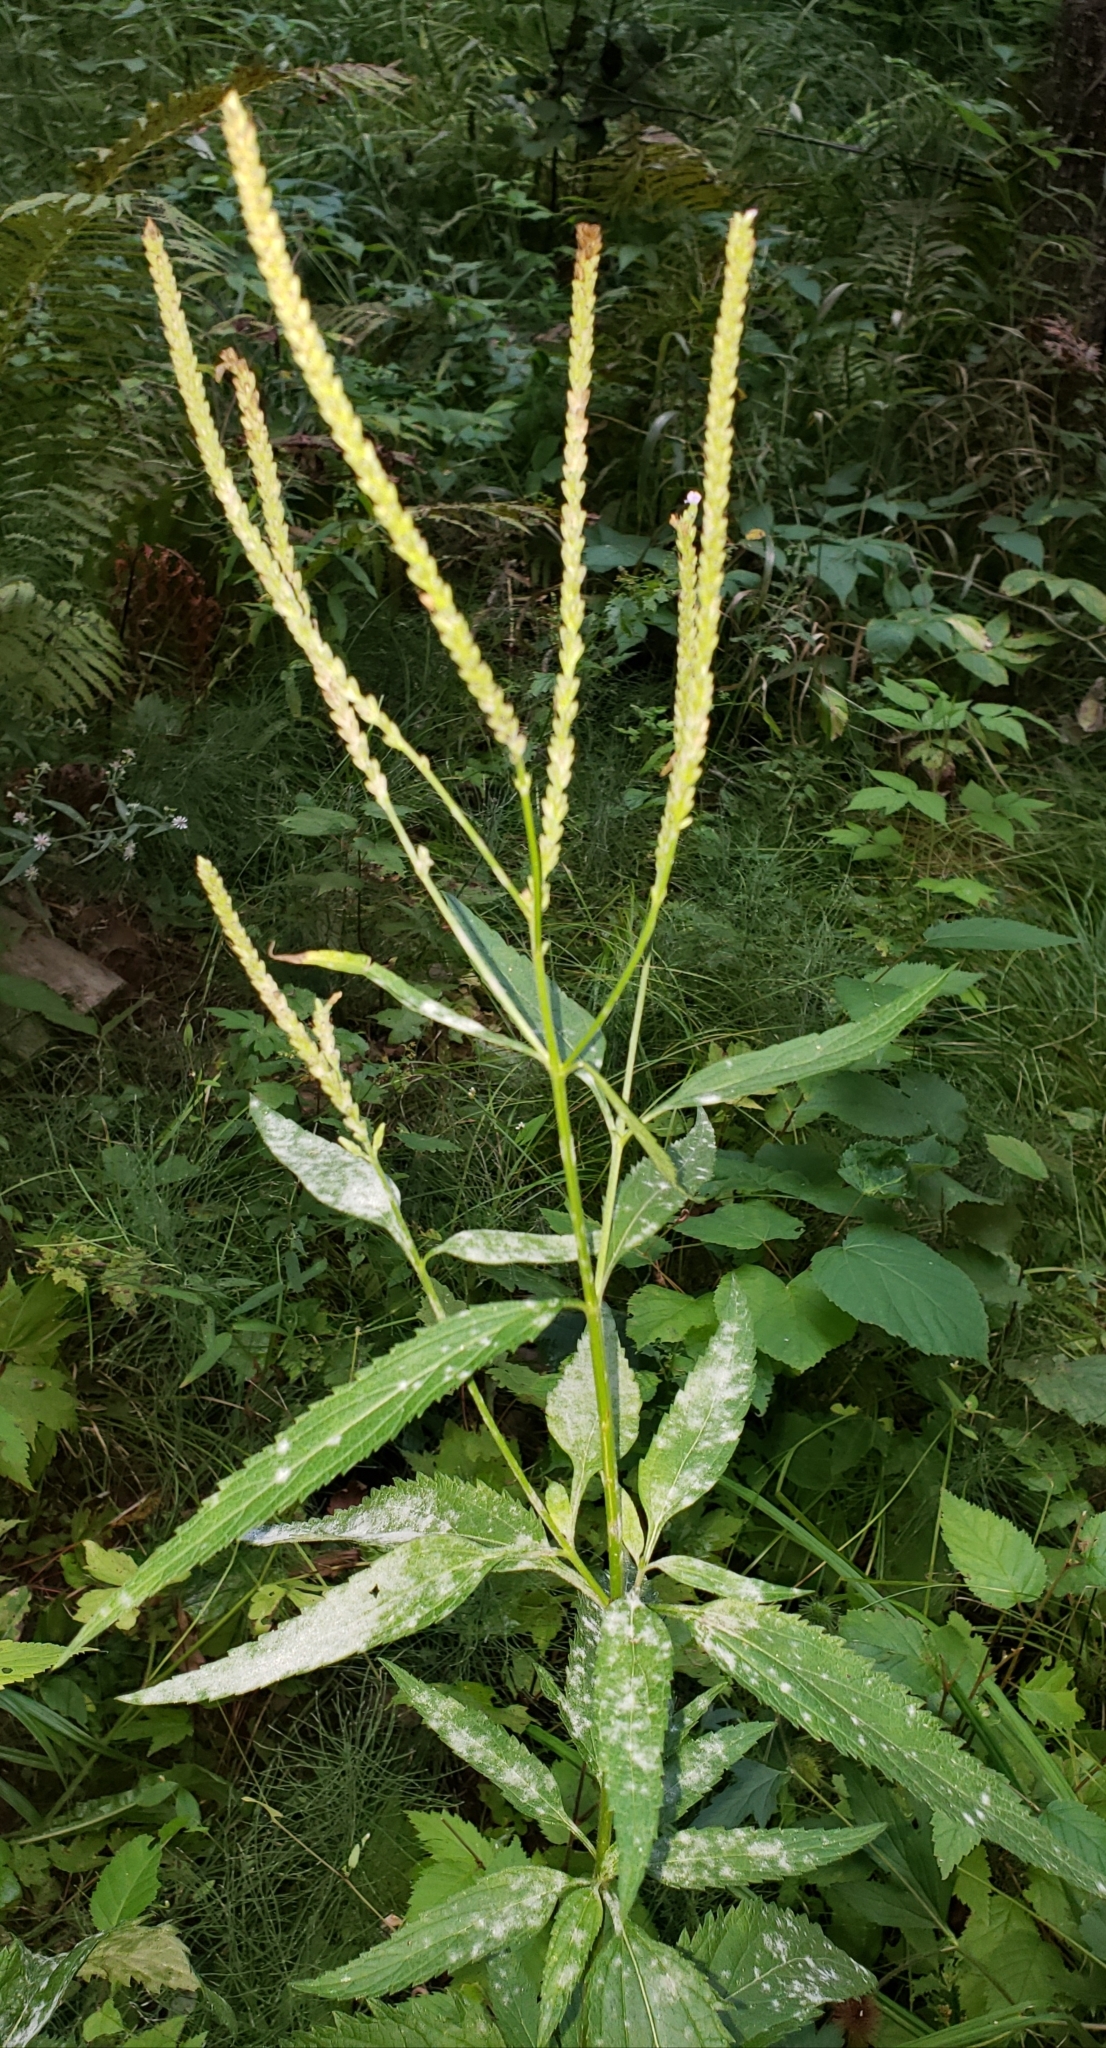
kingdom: Plantae
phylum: Tracheophyta
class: Magnoliopsida
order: Lamiales
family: Verbenaceae
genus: Verbena
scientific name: Verbena hastata
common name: American blue vervain
